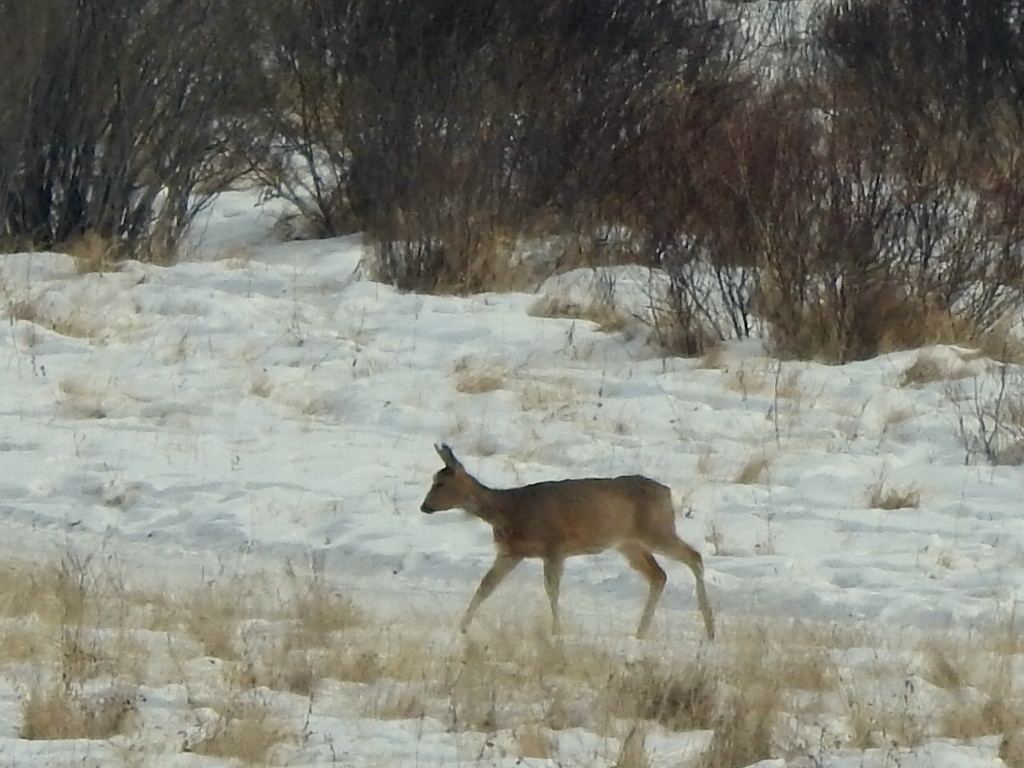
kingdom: Animalia
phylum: Chordata
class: Mammalia
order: Artiodactyla
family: Cervidae
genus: Capreolus
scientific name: Capreolus pygargus
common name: Siberian roe
